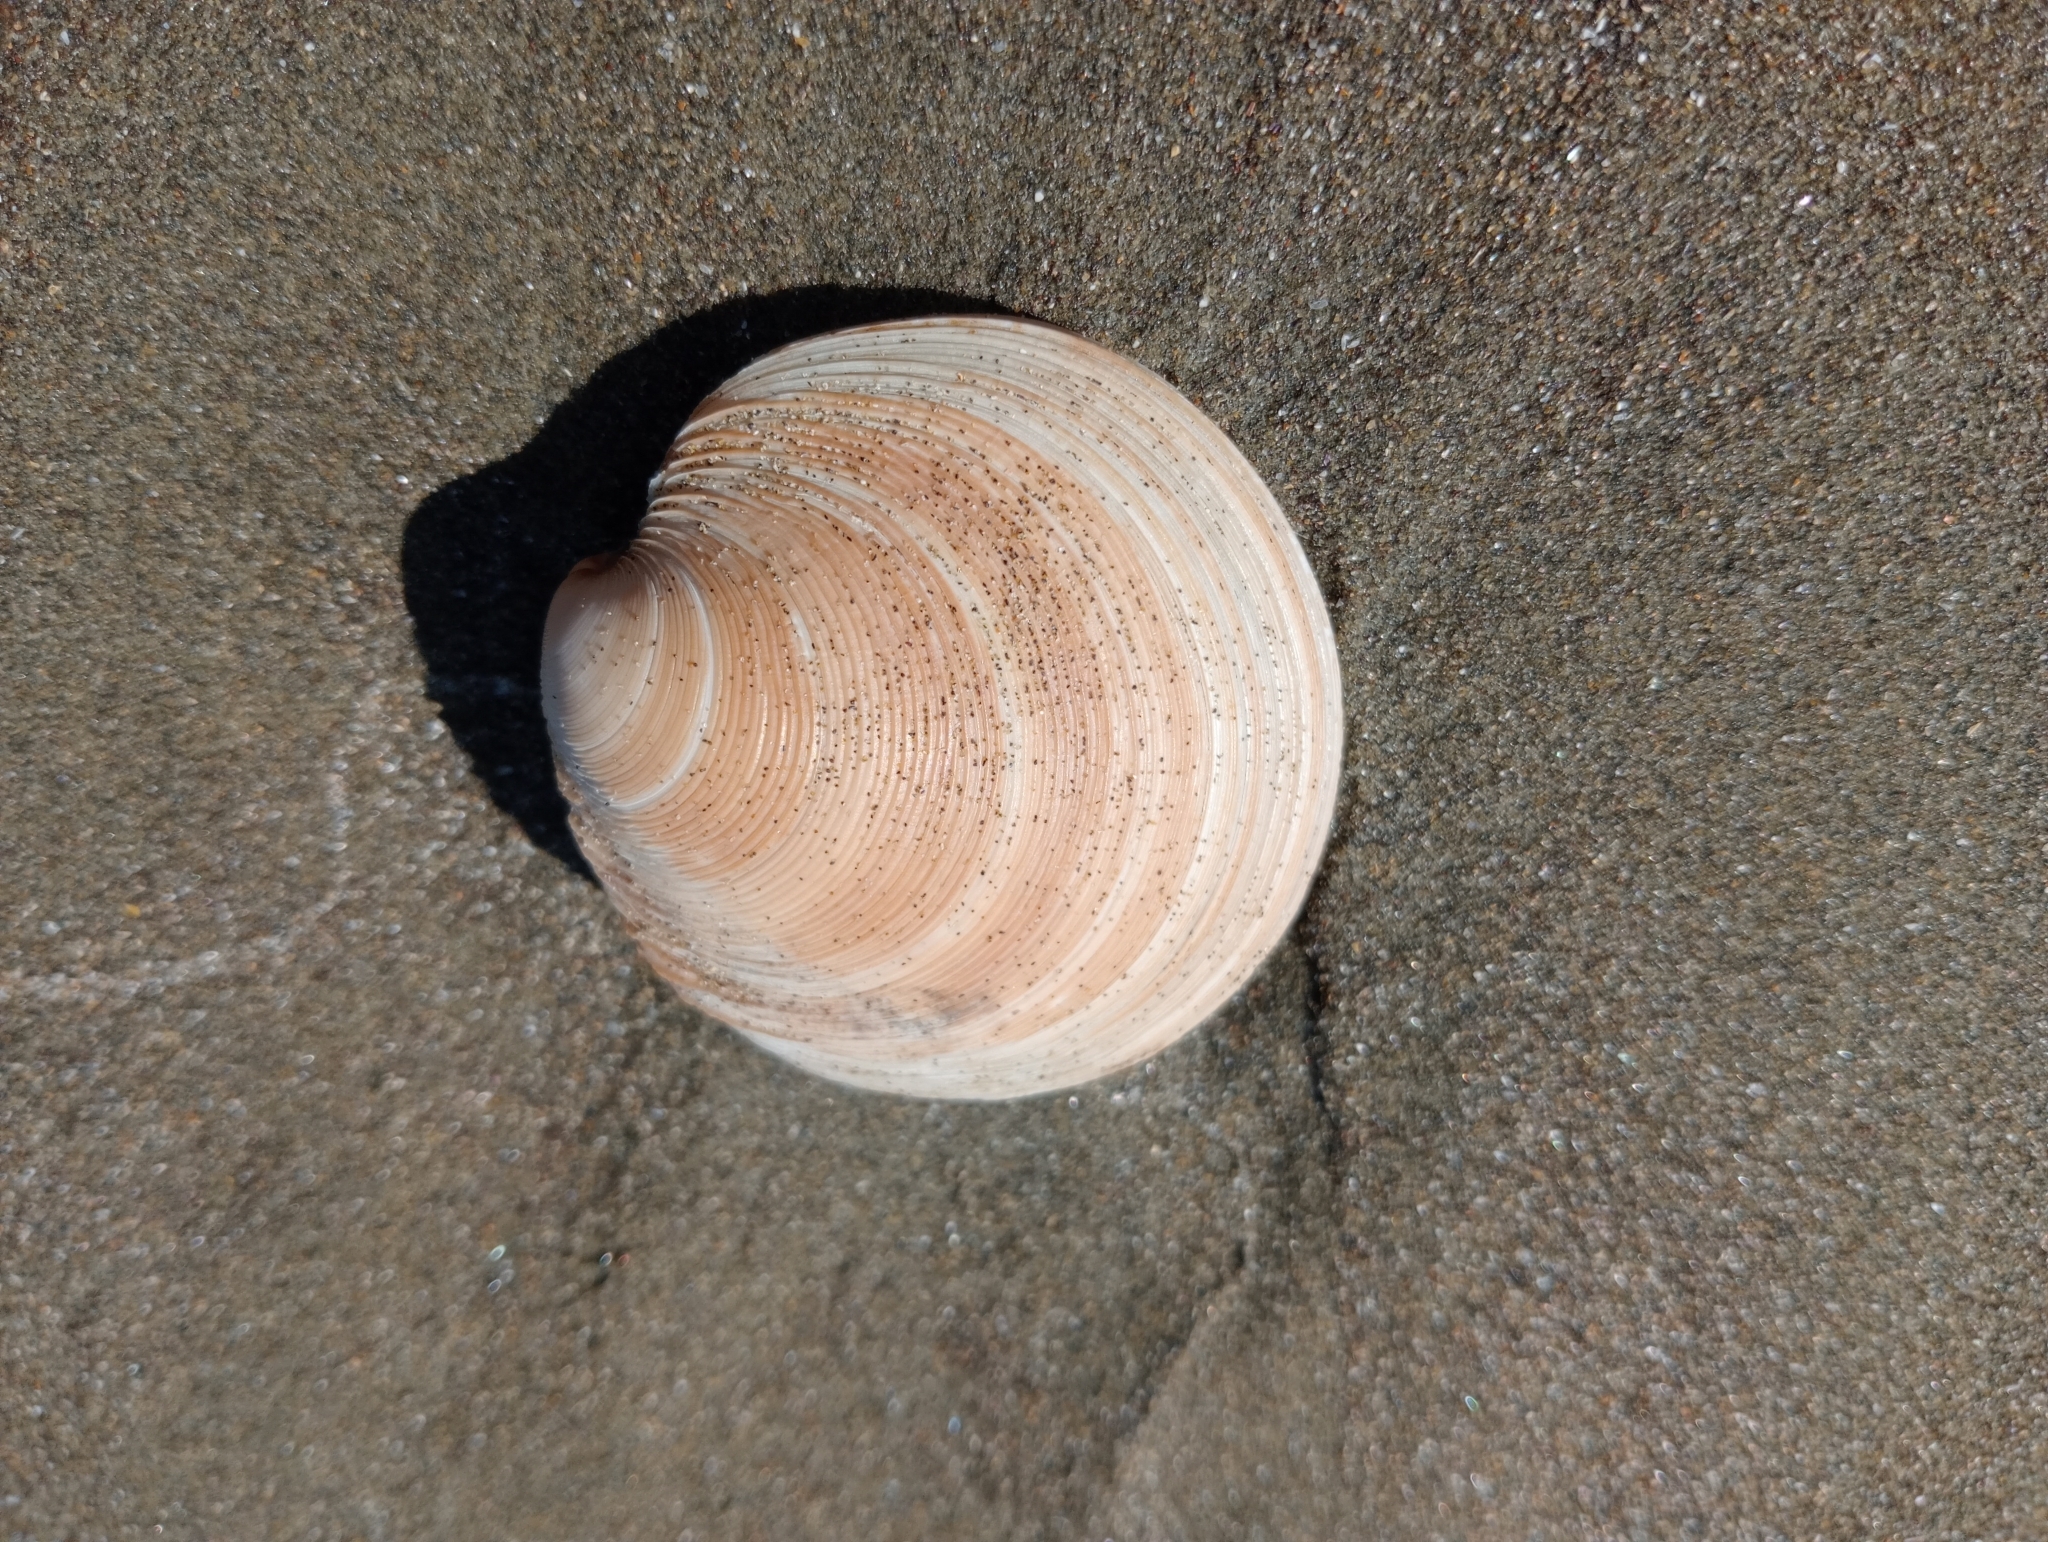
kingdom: Animalia
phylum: Mollusca
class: Bivalvia
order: Venerida
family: Veneridae
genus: Dosinia
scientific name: Dosinia anus
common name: Old-woman dosinia
